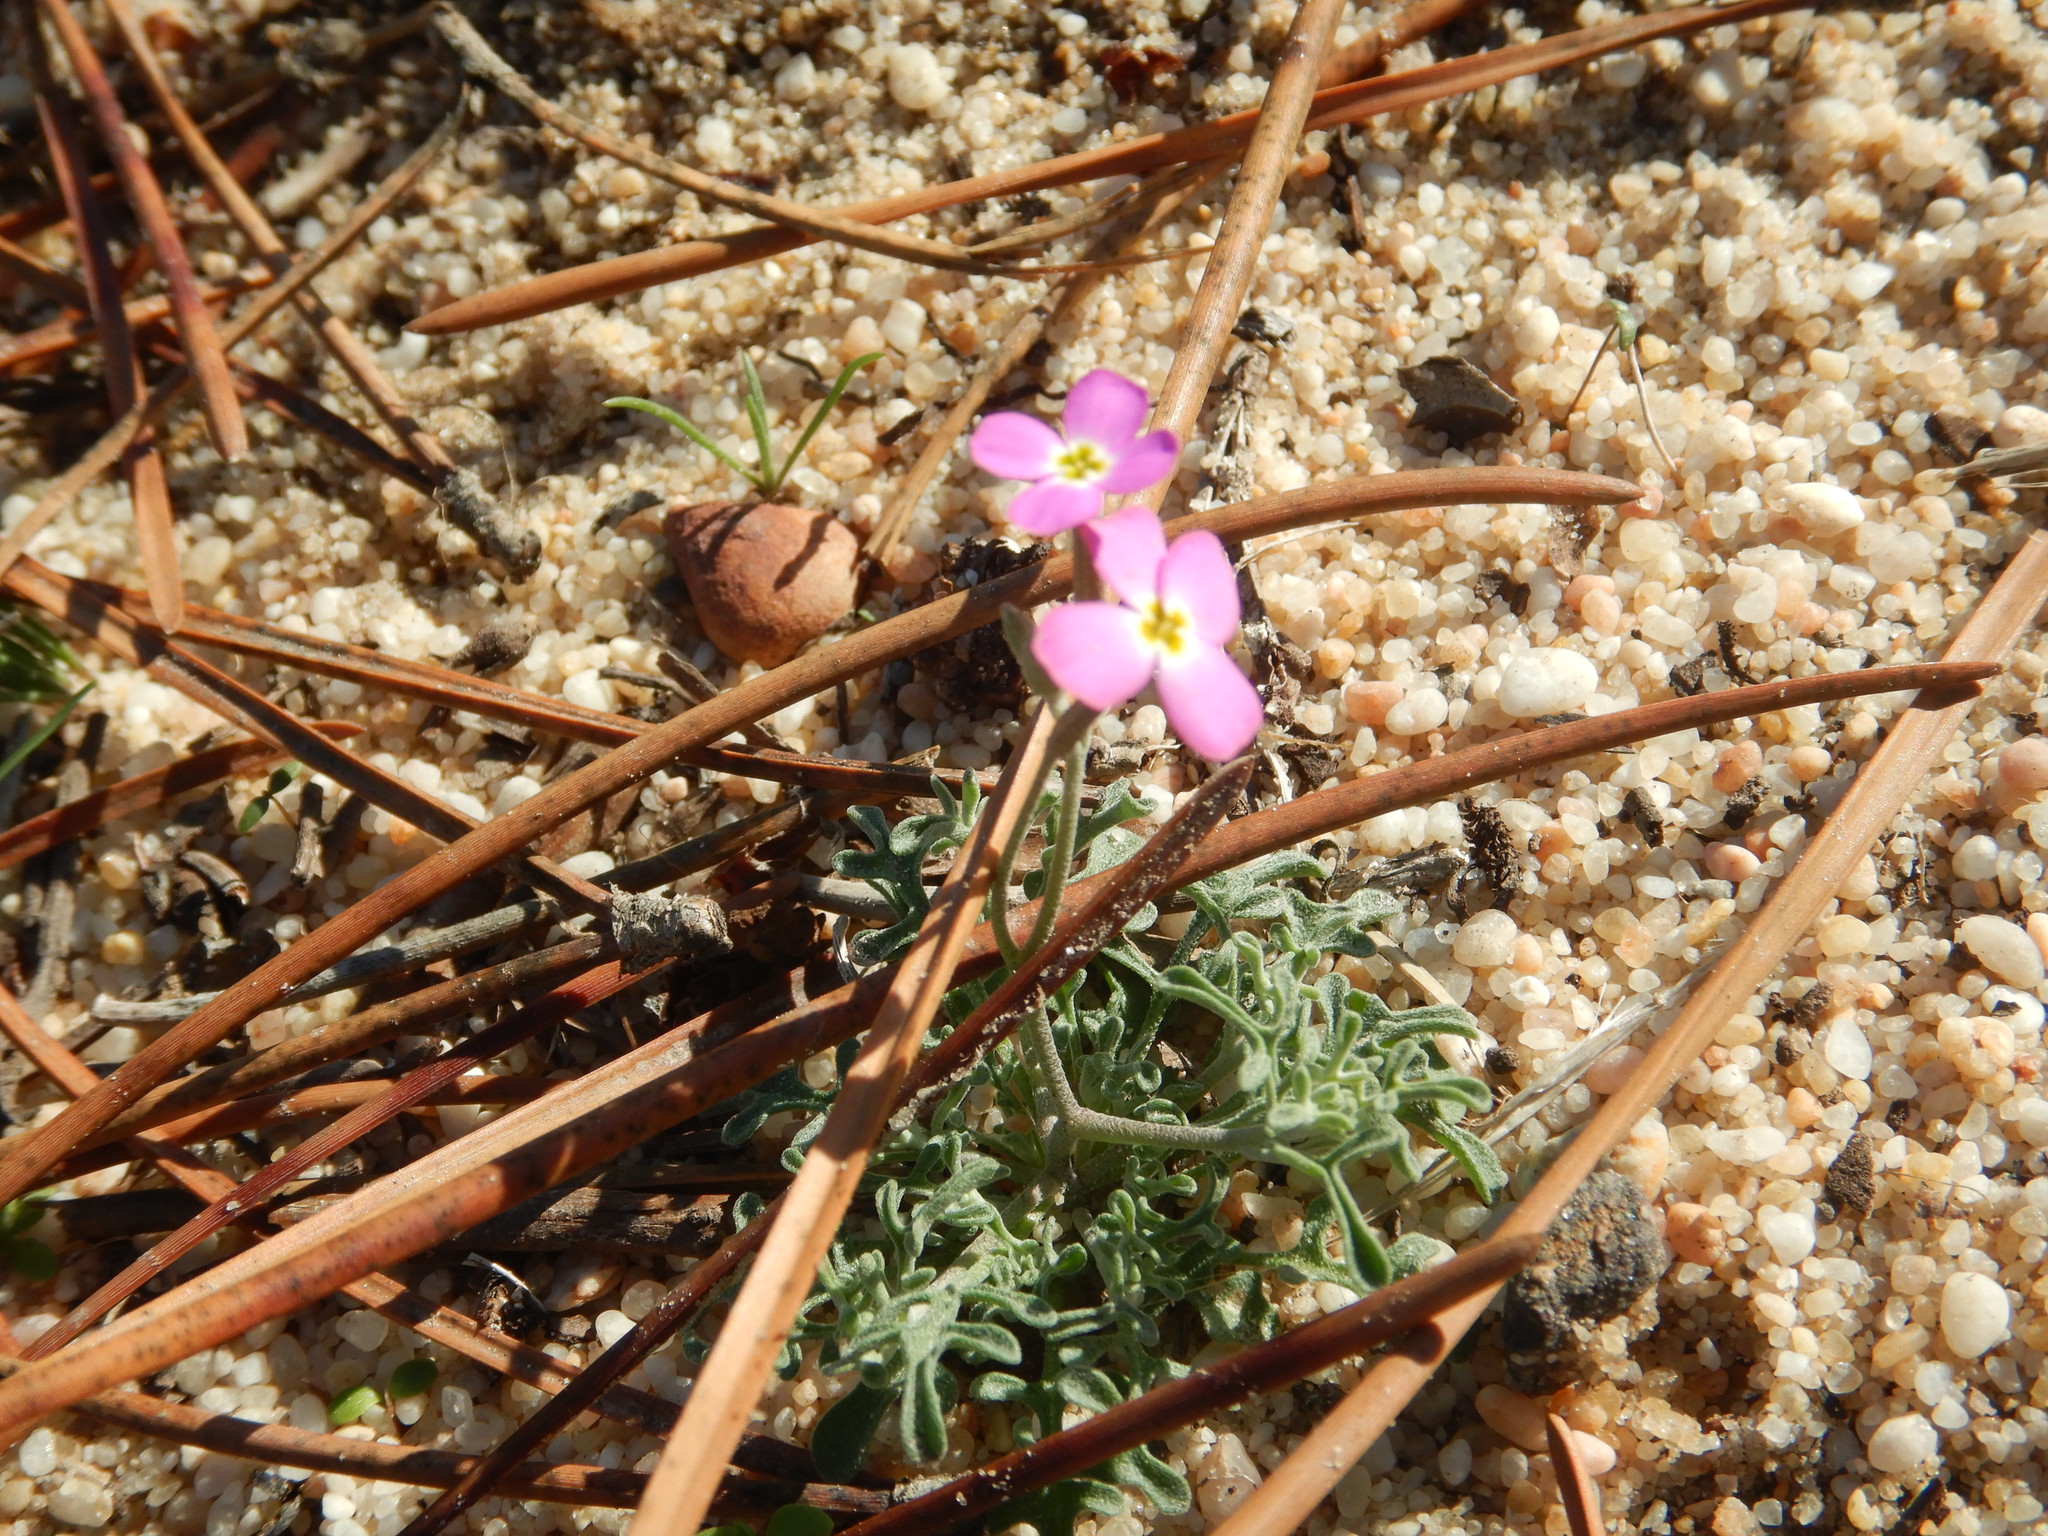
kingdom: Plantae
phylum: Tracheophyta
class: Magnoliopsida
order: Brassicales
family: Brassicaceae
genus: Marcuskochia
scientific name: Marcuskochia triloba
